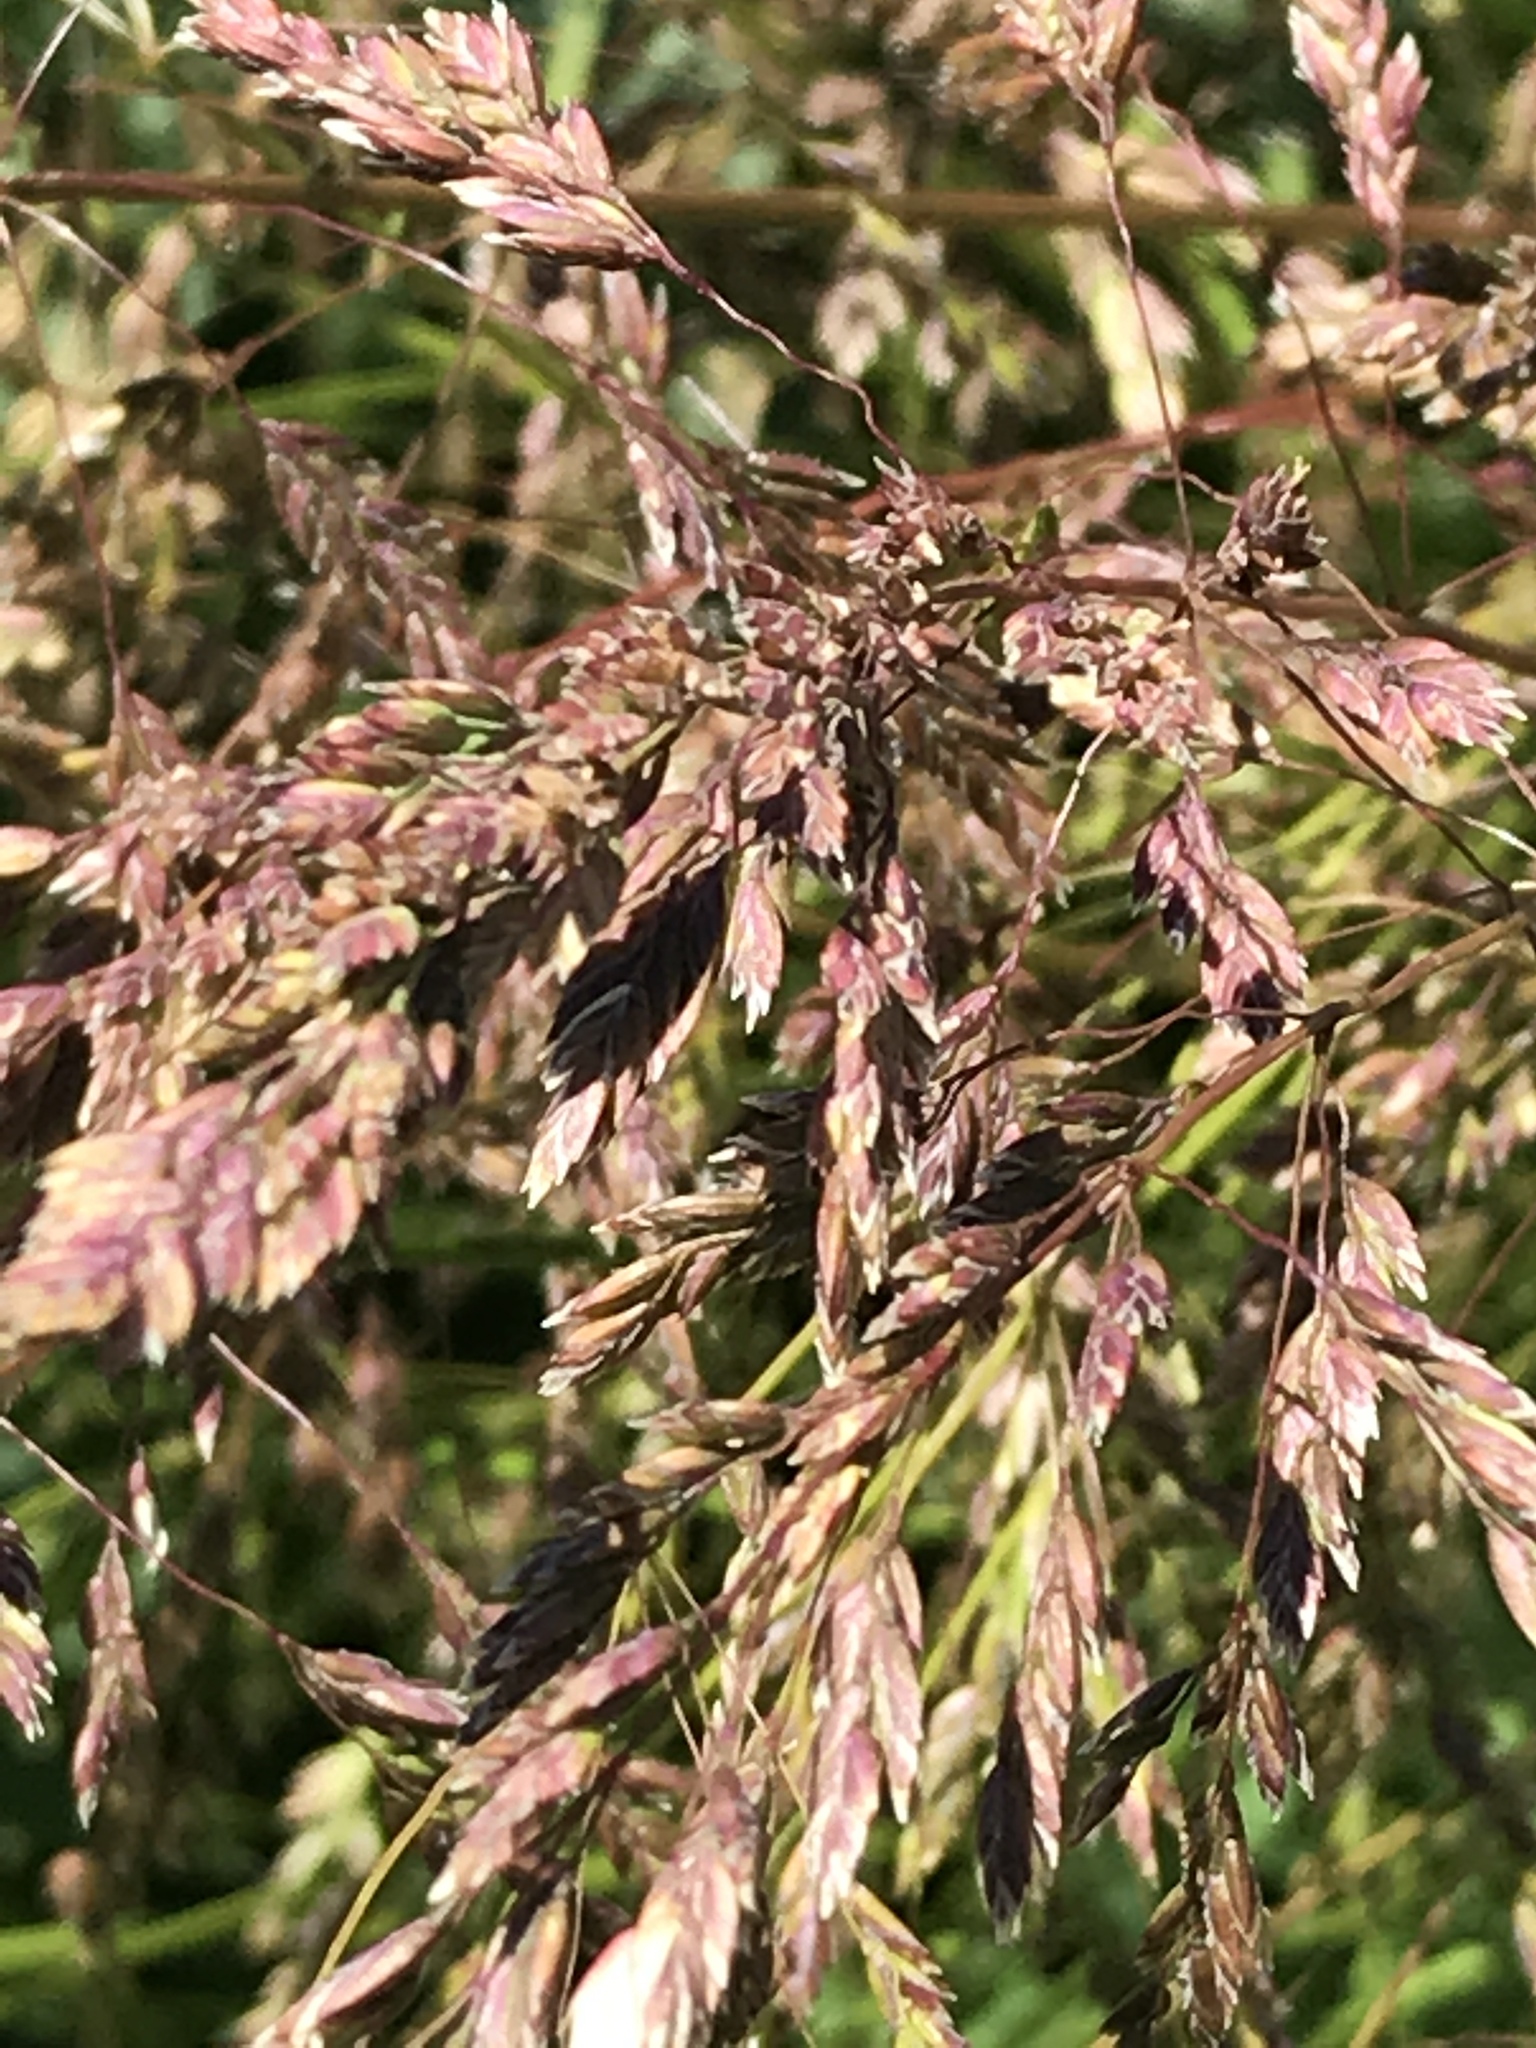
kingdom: Plantae
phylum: Tracheophyta
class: Liliopsida
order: Poales
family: Poaceae
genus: Poa
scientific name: Poa pratensis
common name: Kentucky bluegrass
